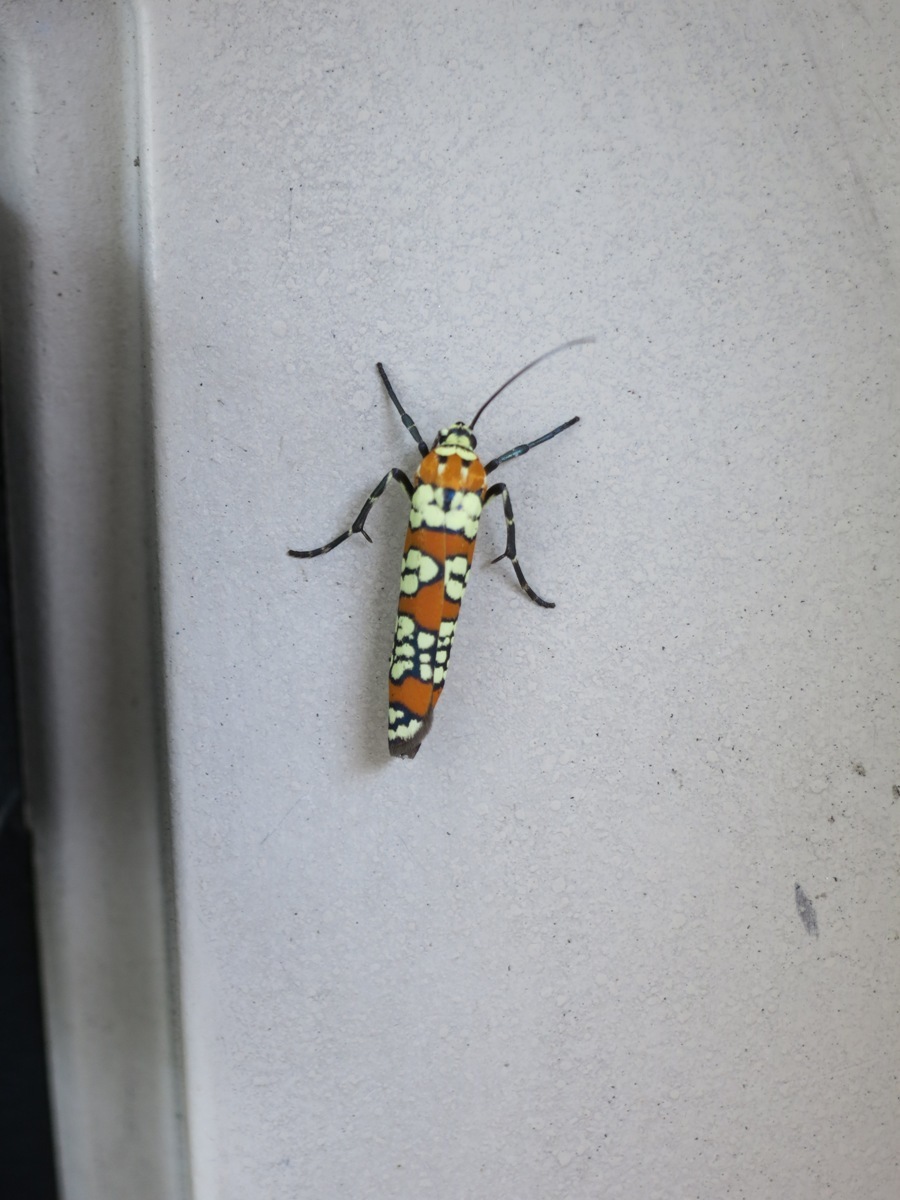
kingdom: Animalia
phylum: Arthropoda
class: Insecta
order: Lepidoptera
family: Attevidae
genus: Atteva
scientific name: Atteva punctella
